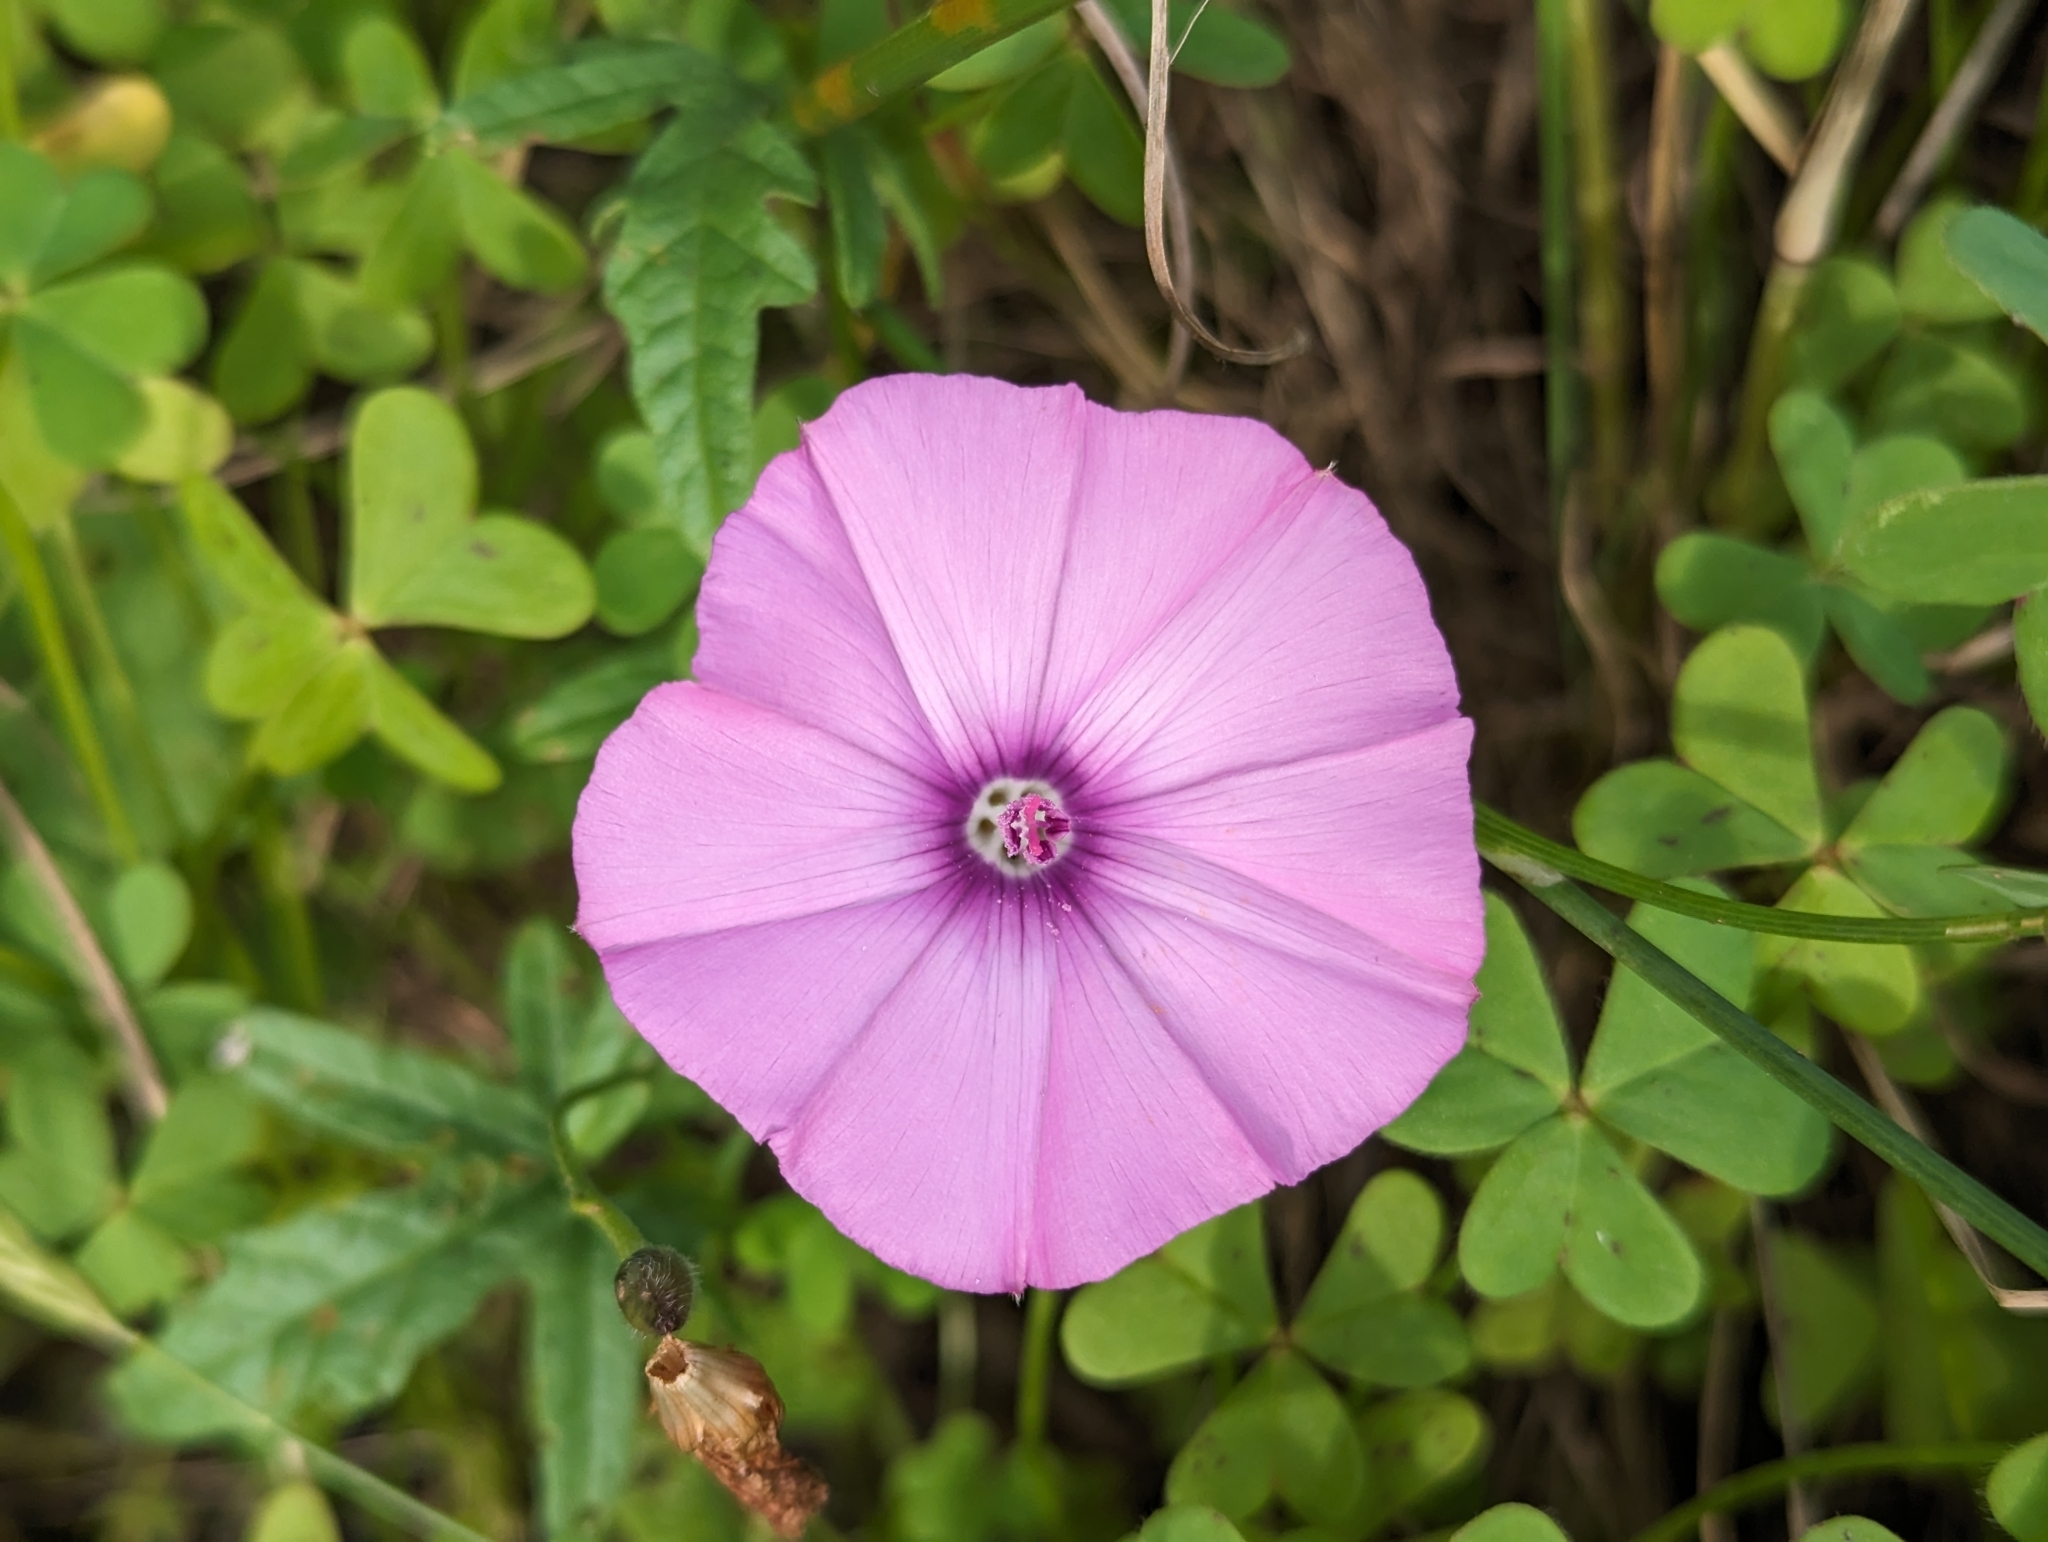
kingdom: Plantae
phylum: Tracheophyta
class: Magnoliopsida
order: Solanales
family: Convolvulaceae
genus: Convolvulus
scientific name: Convolvulus althaeoides
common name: Mallow bindweed
